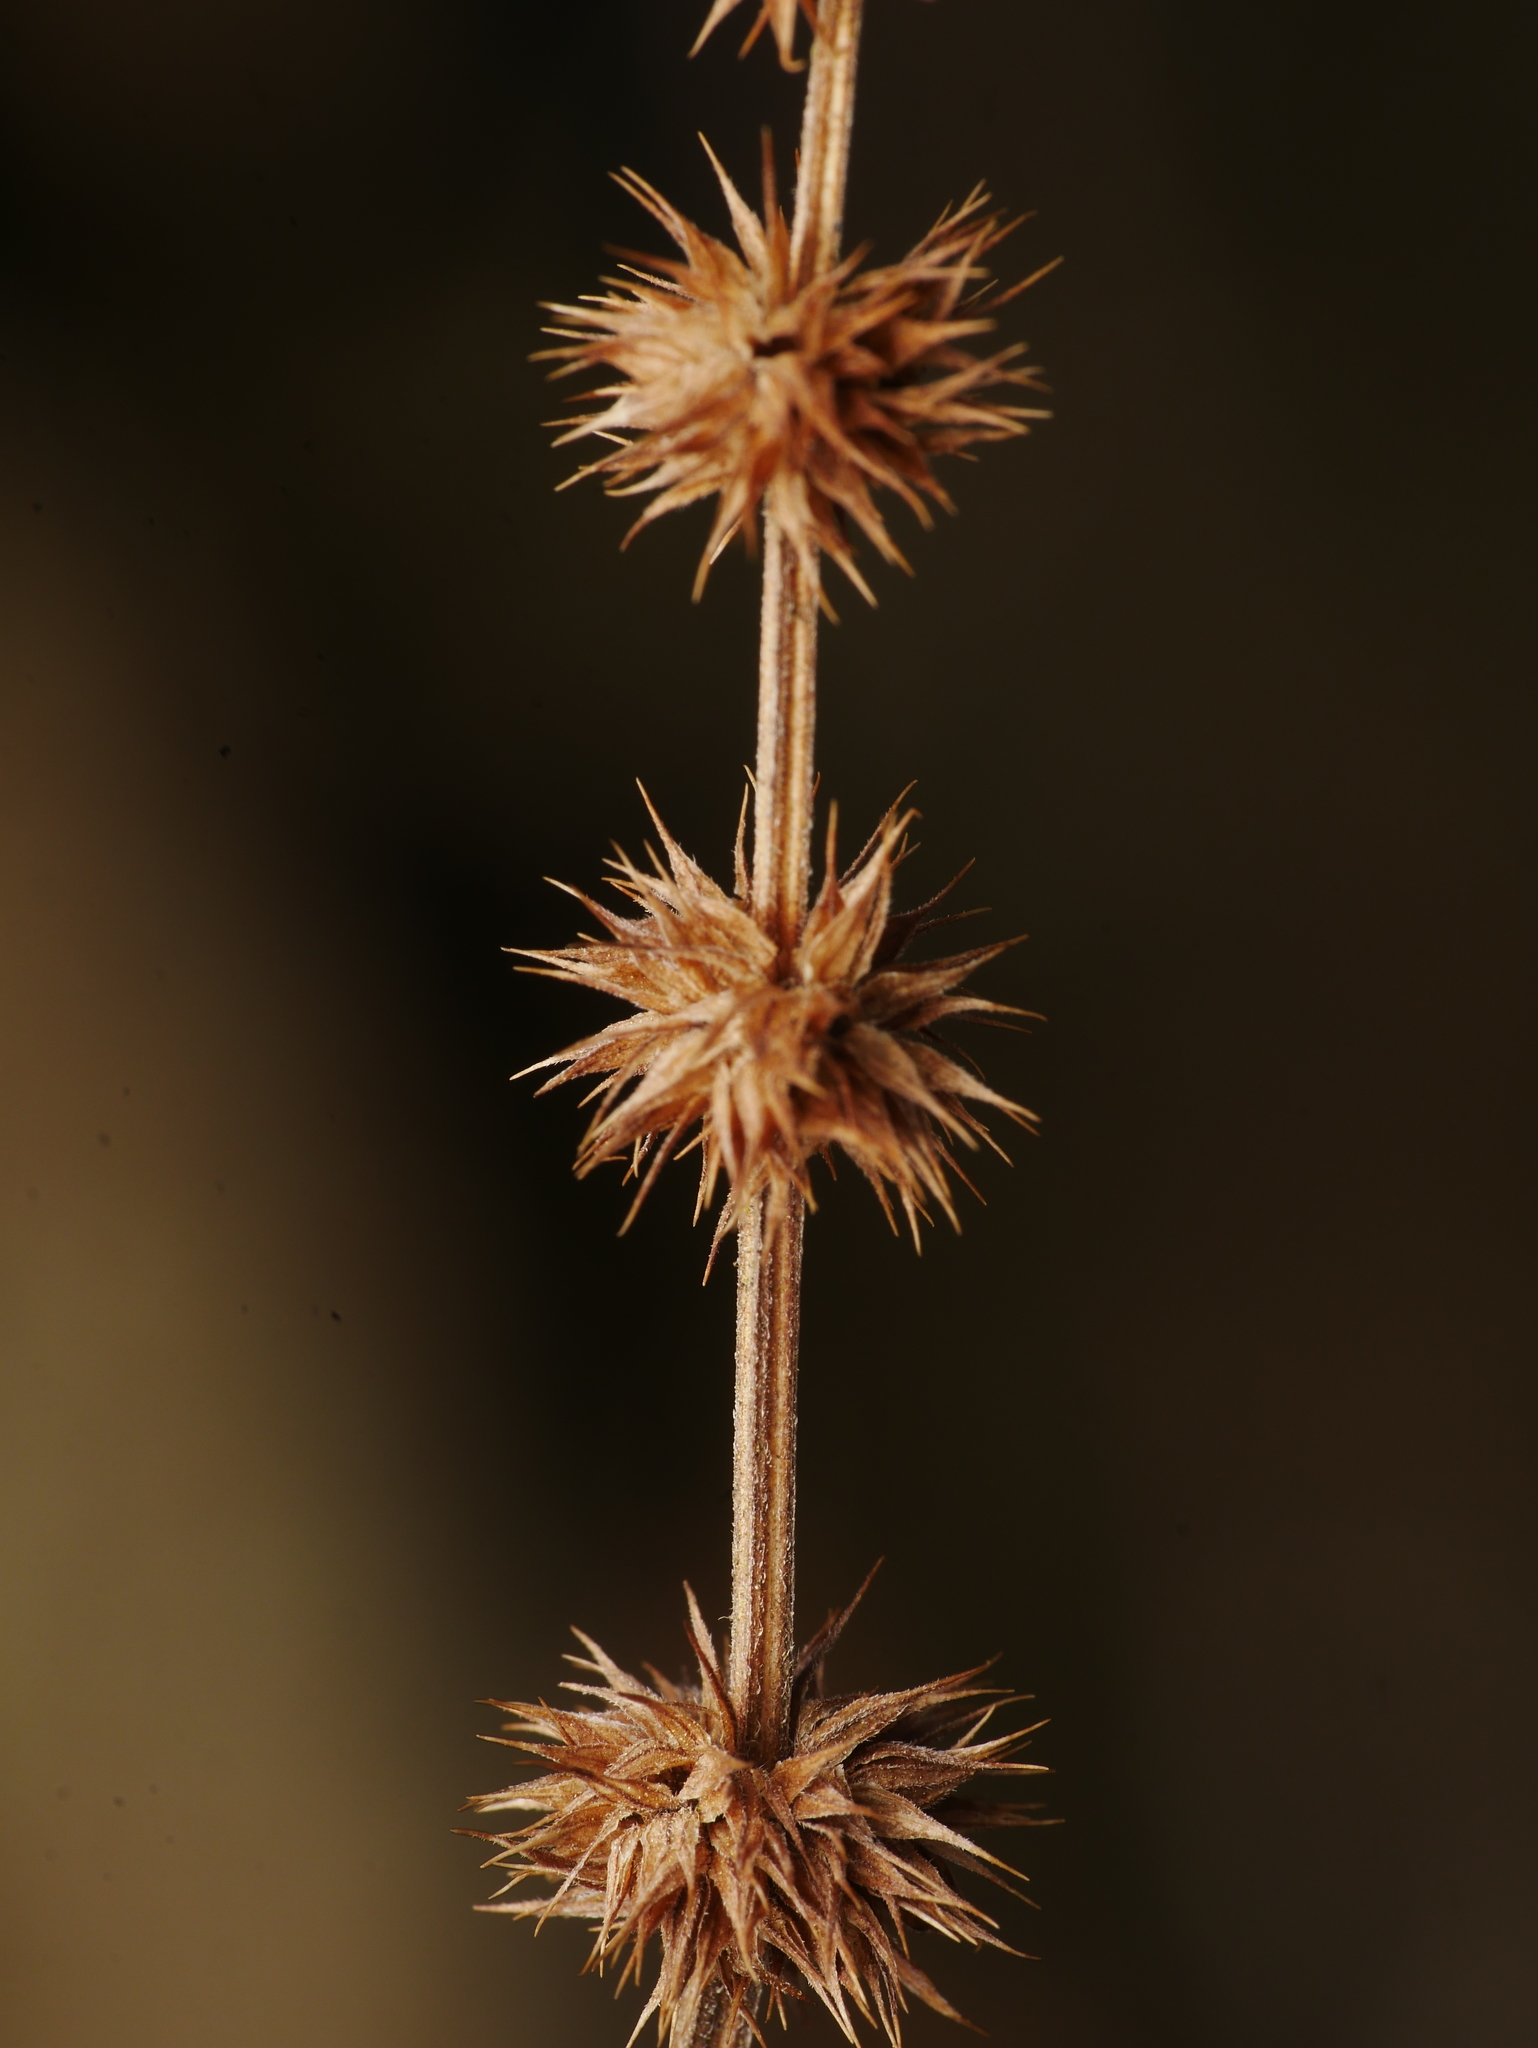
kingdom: Plantae
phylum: Tracheophyta
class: Magnoliopsida
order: Lamiales
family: Lamiaceae
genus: Lycopus
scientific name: Lycopus europaeus
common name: European bugleweed
